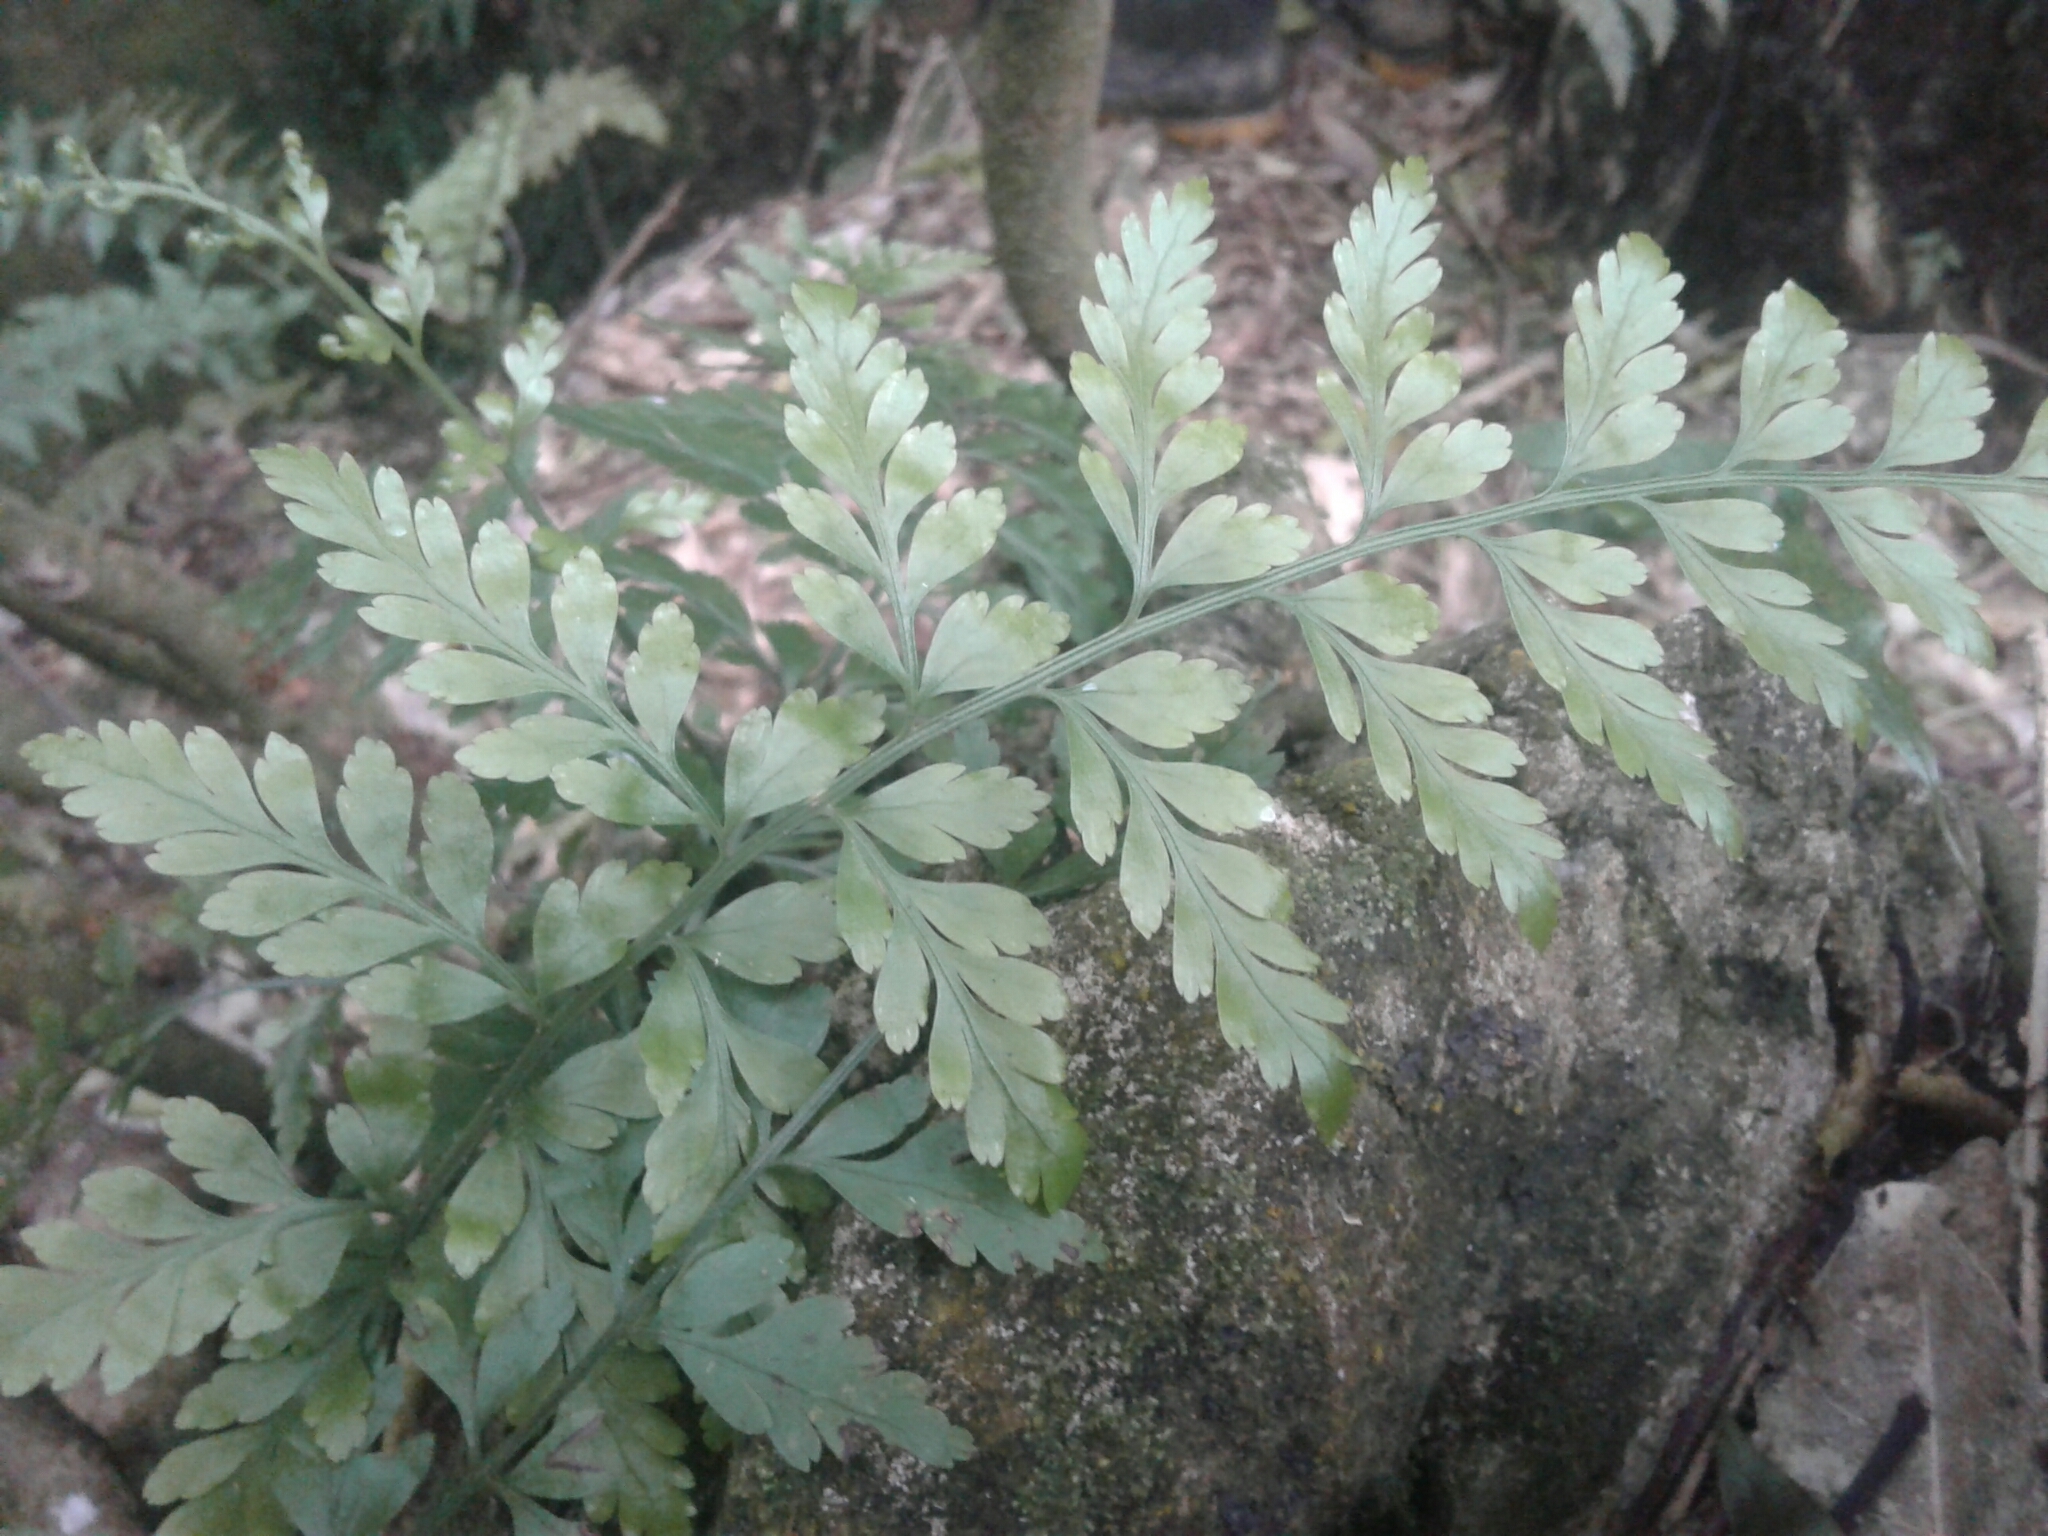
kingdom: Plantae
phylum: Tracheophyta
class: Polypodiopsida
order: Polypodiales
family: Aspleniaceae
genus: Asplenium
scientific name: Asplenium
